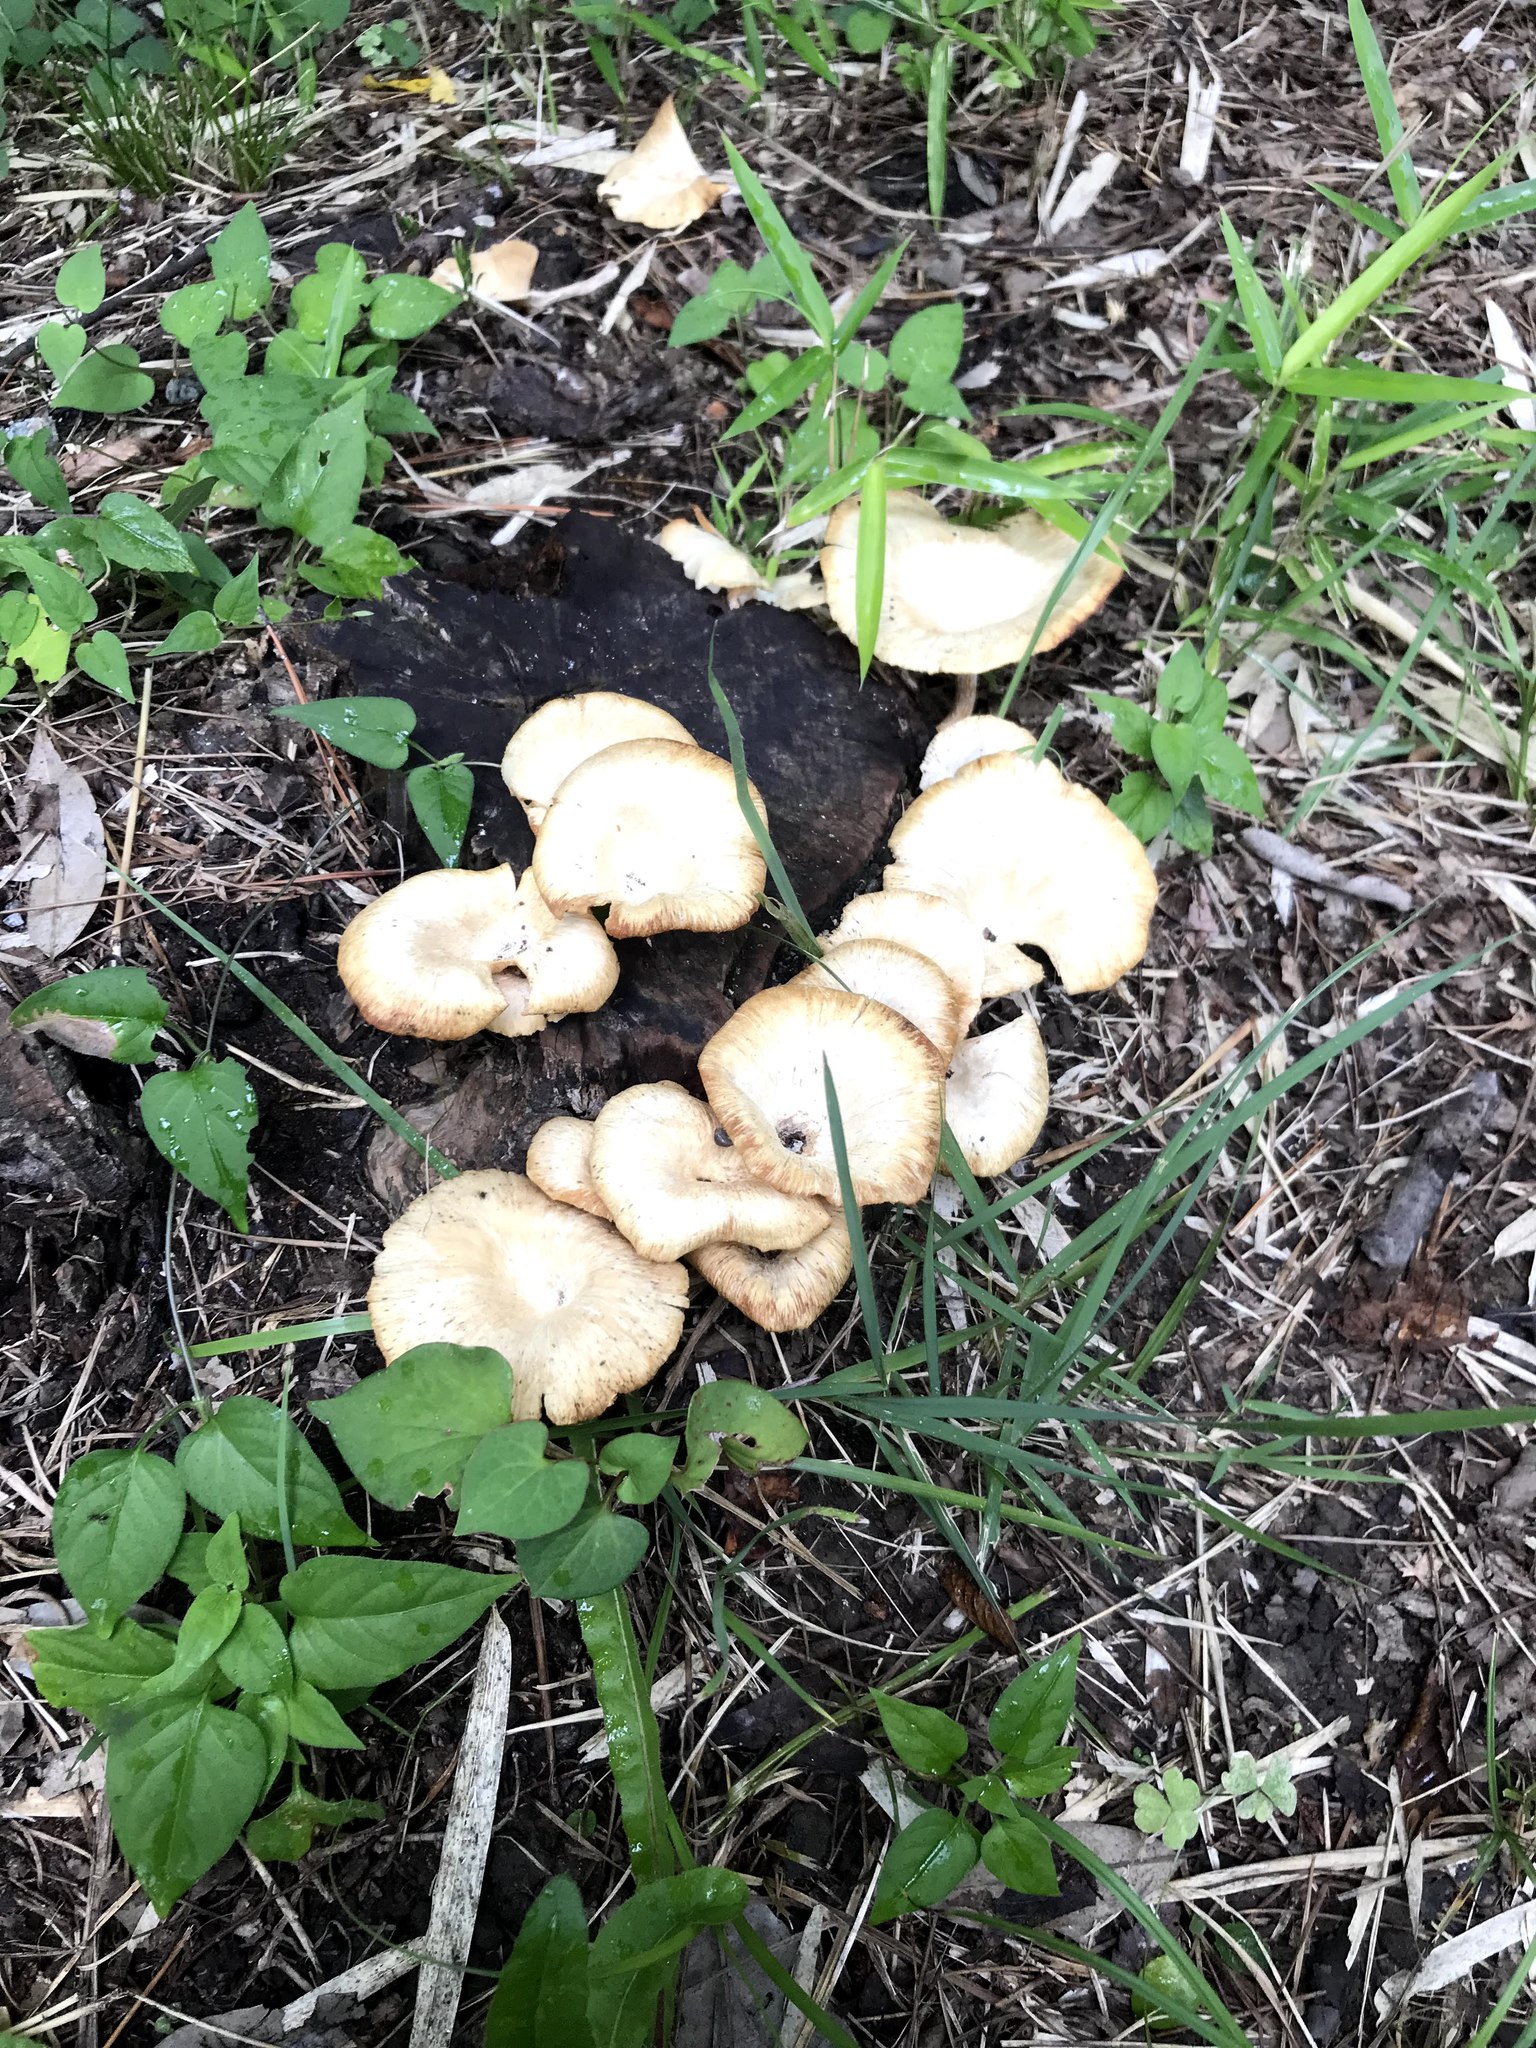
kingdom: Fungi
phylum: Basidiomycota
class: Agaricomycetes
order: Polyporales
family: Polyporaceae
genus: Lentinus
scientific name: Lentinus sajor-caju
